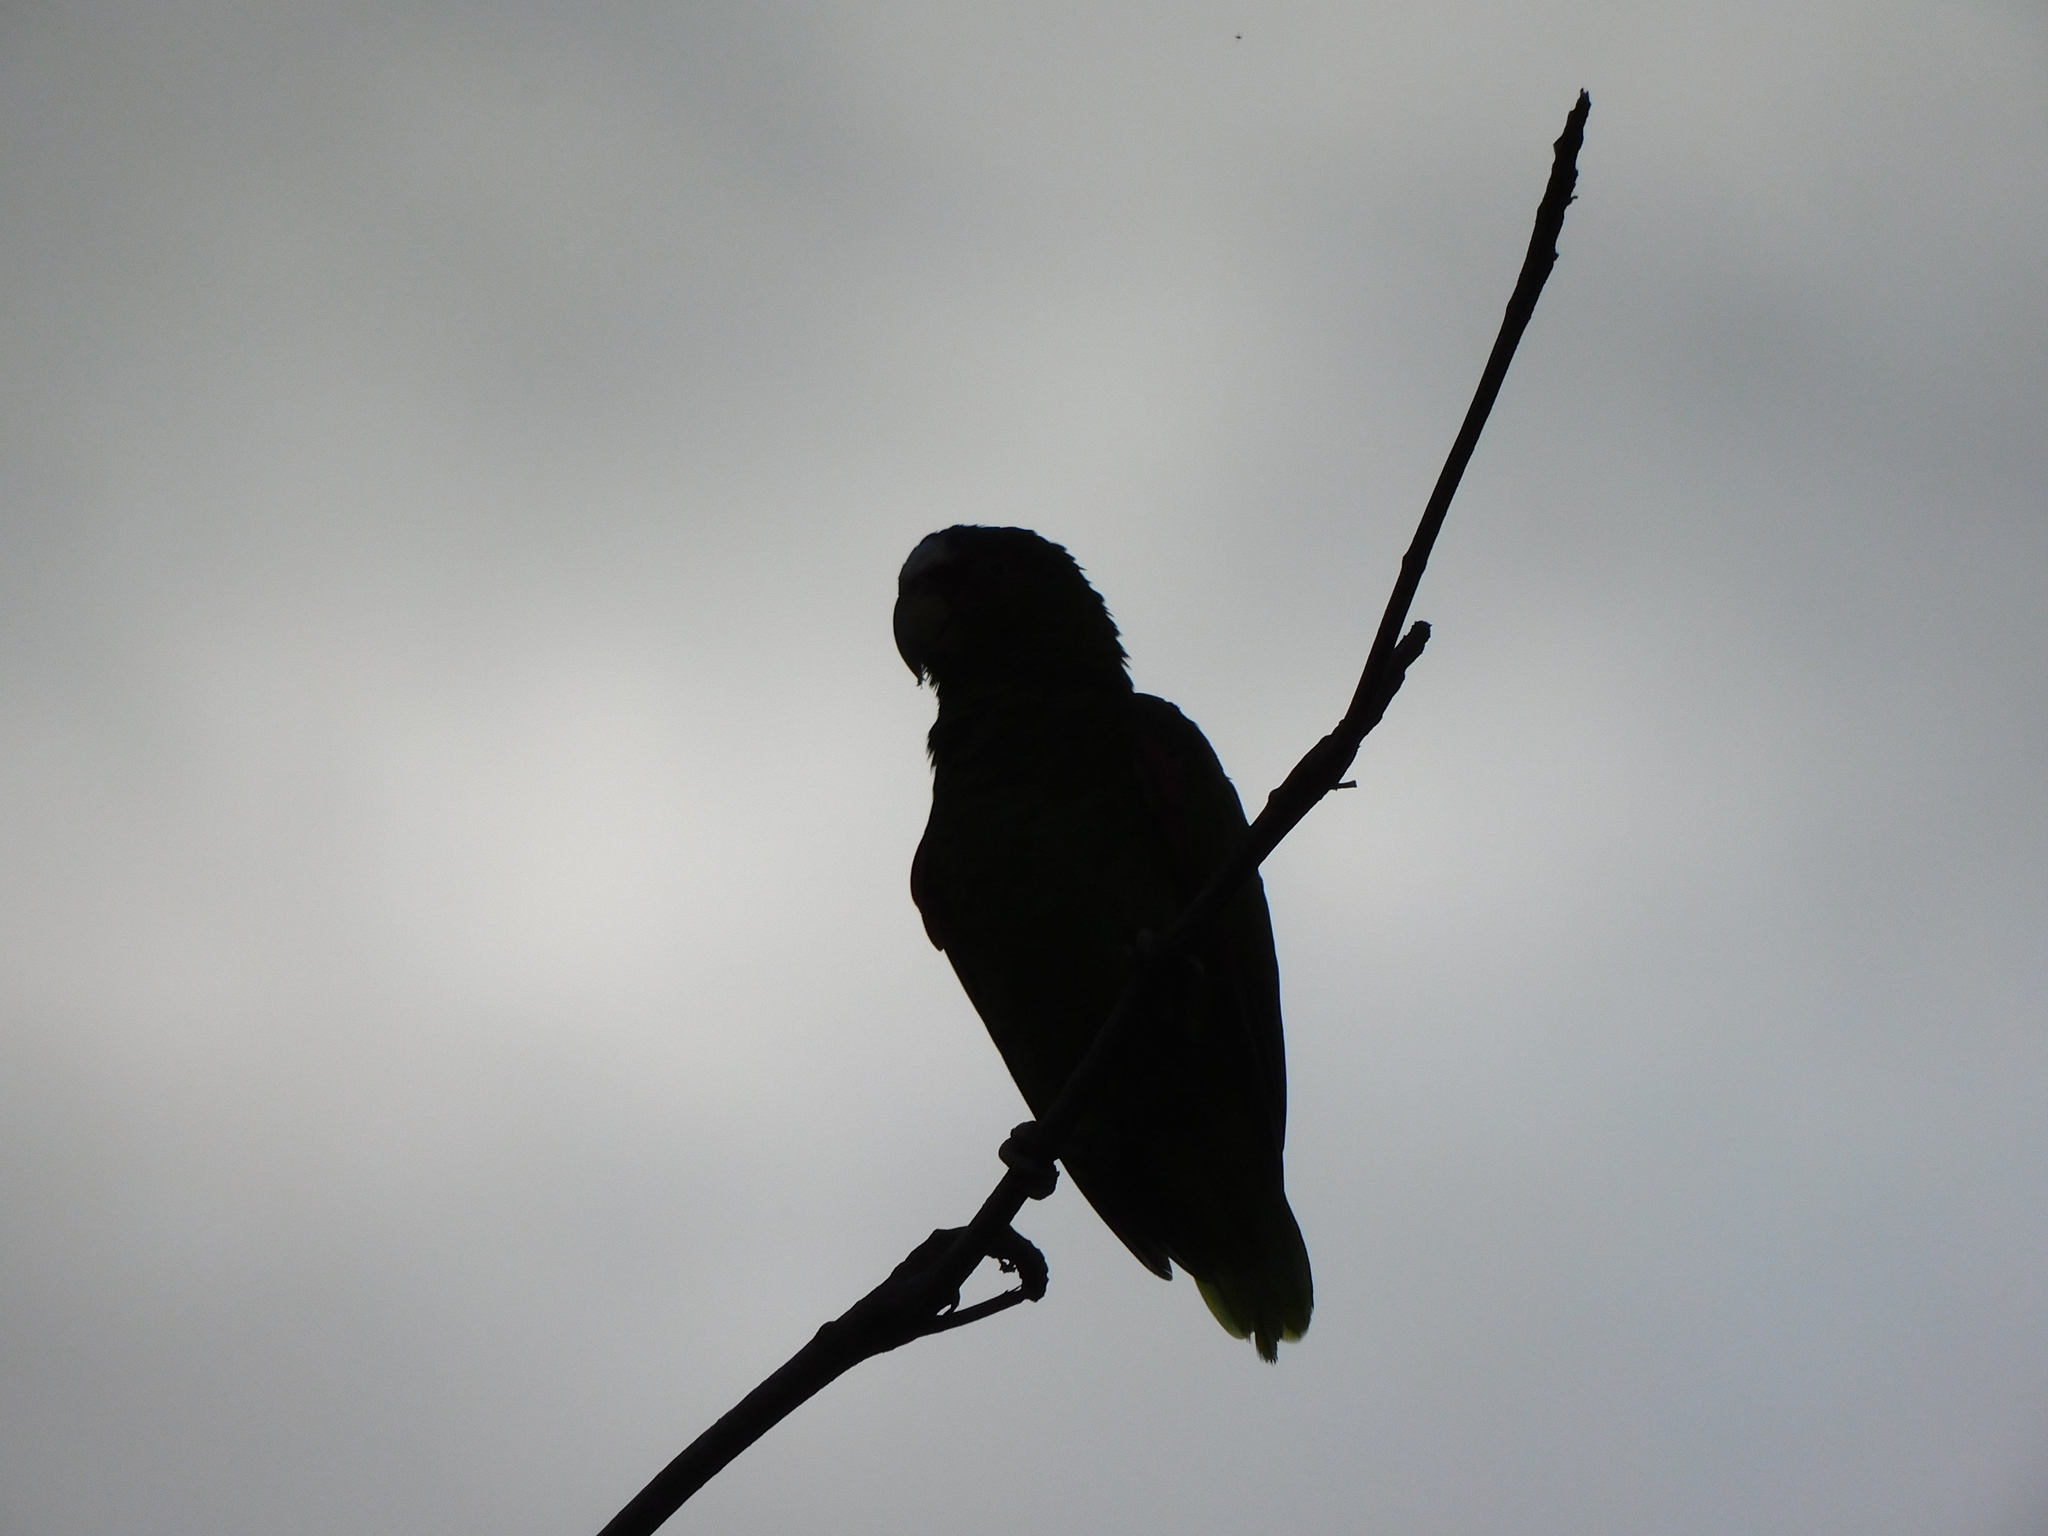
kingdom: Animalia
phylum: Chordata
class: Aves
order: Psittaciformes
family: Psittacidae
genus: Amazona
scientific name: Amazona albifrons
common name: White-fronted amazon
